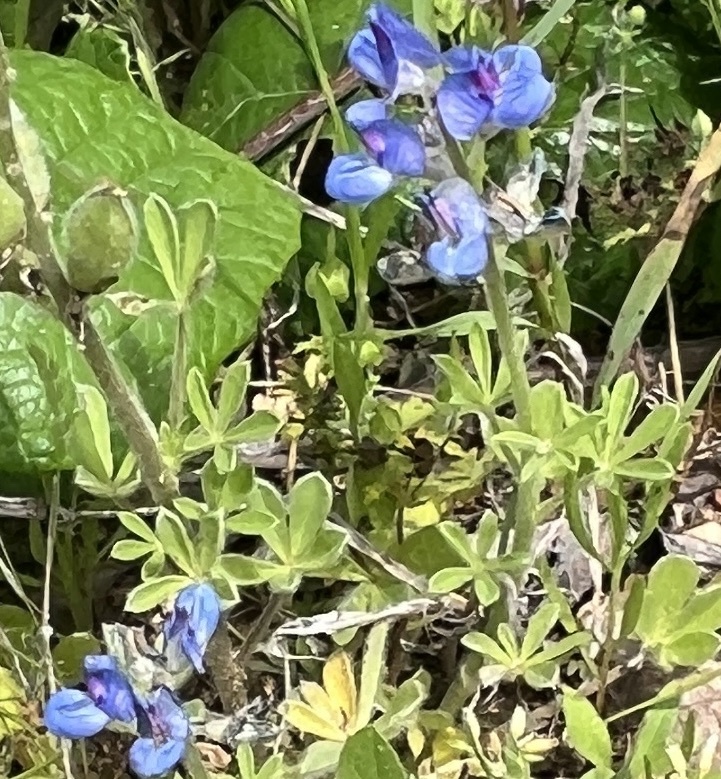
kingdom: Plantae
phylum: Tracheophyta
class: Magnoliopsida
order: Fabales
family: Fabaceae
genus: Lupinus
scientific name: Lupinus subcarnosus
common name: Texas bluebonnet
